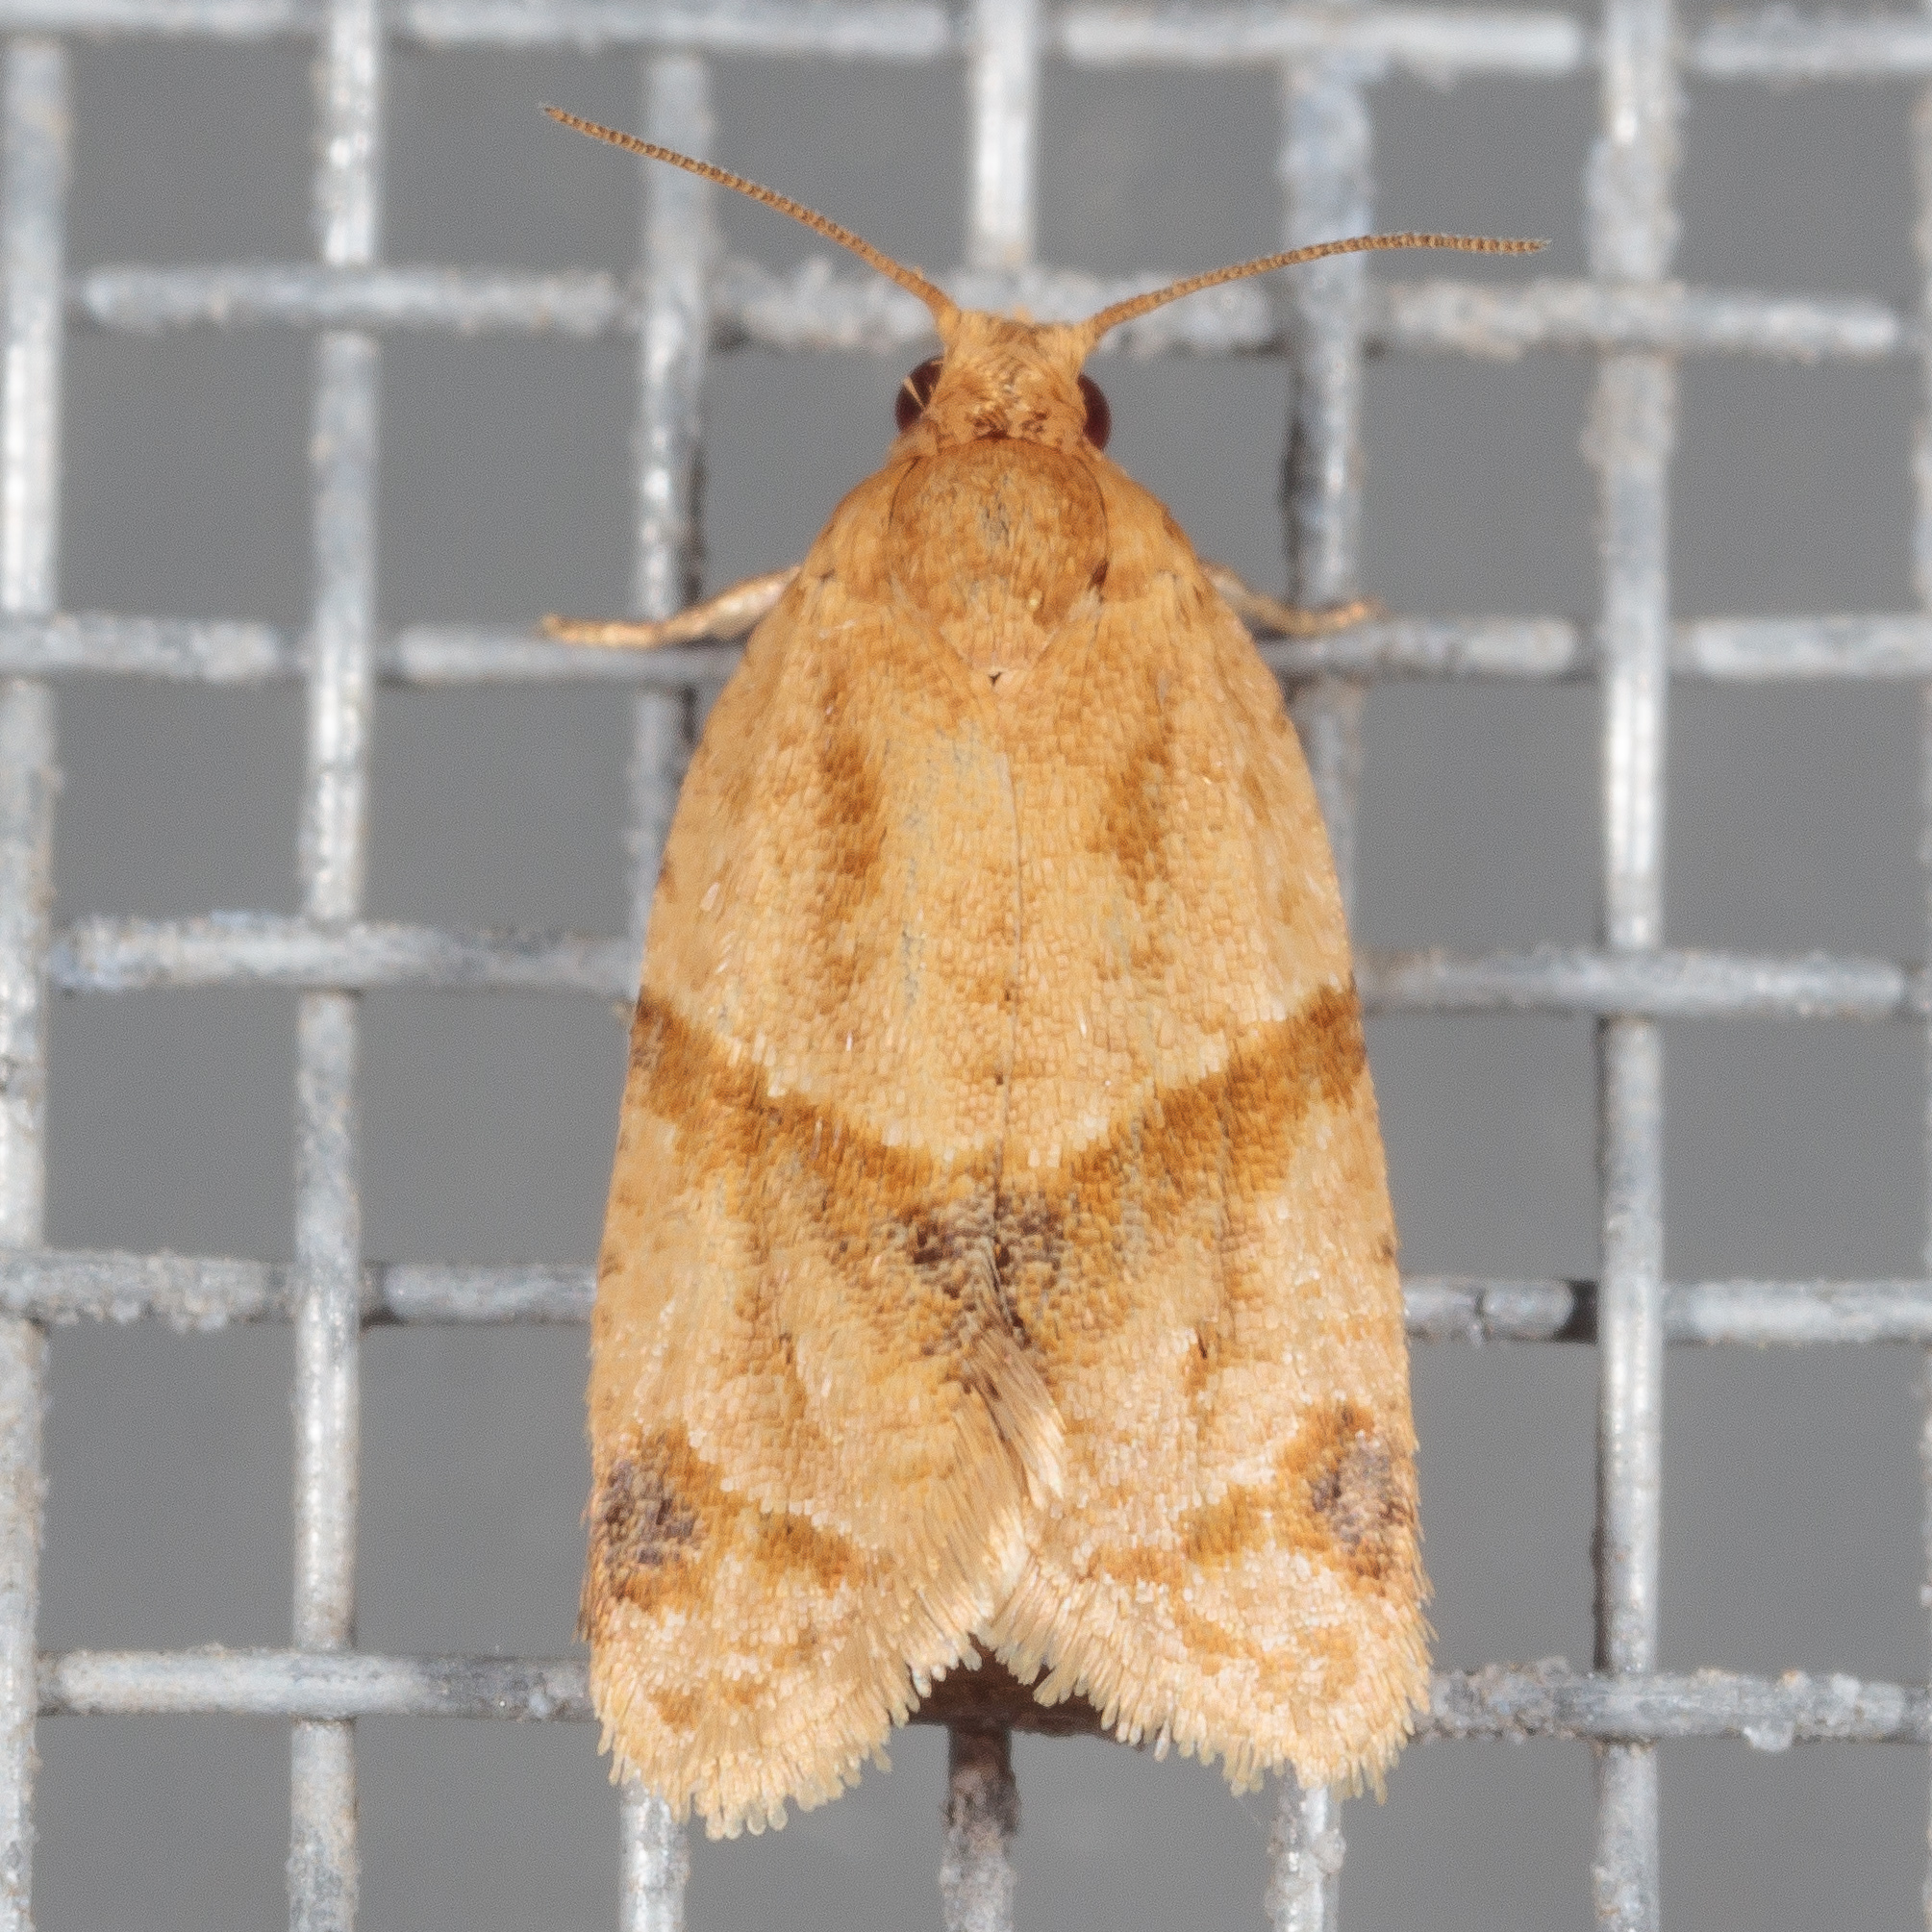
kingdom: Animalia
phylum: Arthropoda
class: Insecta
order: Lepidoptera
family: Tortricidae
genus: Clepsis
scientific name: Clepsis peritana
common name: Garden tortrix
